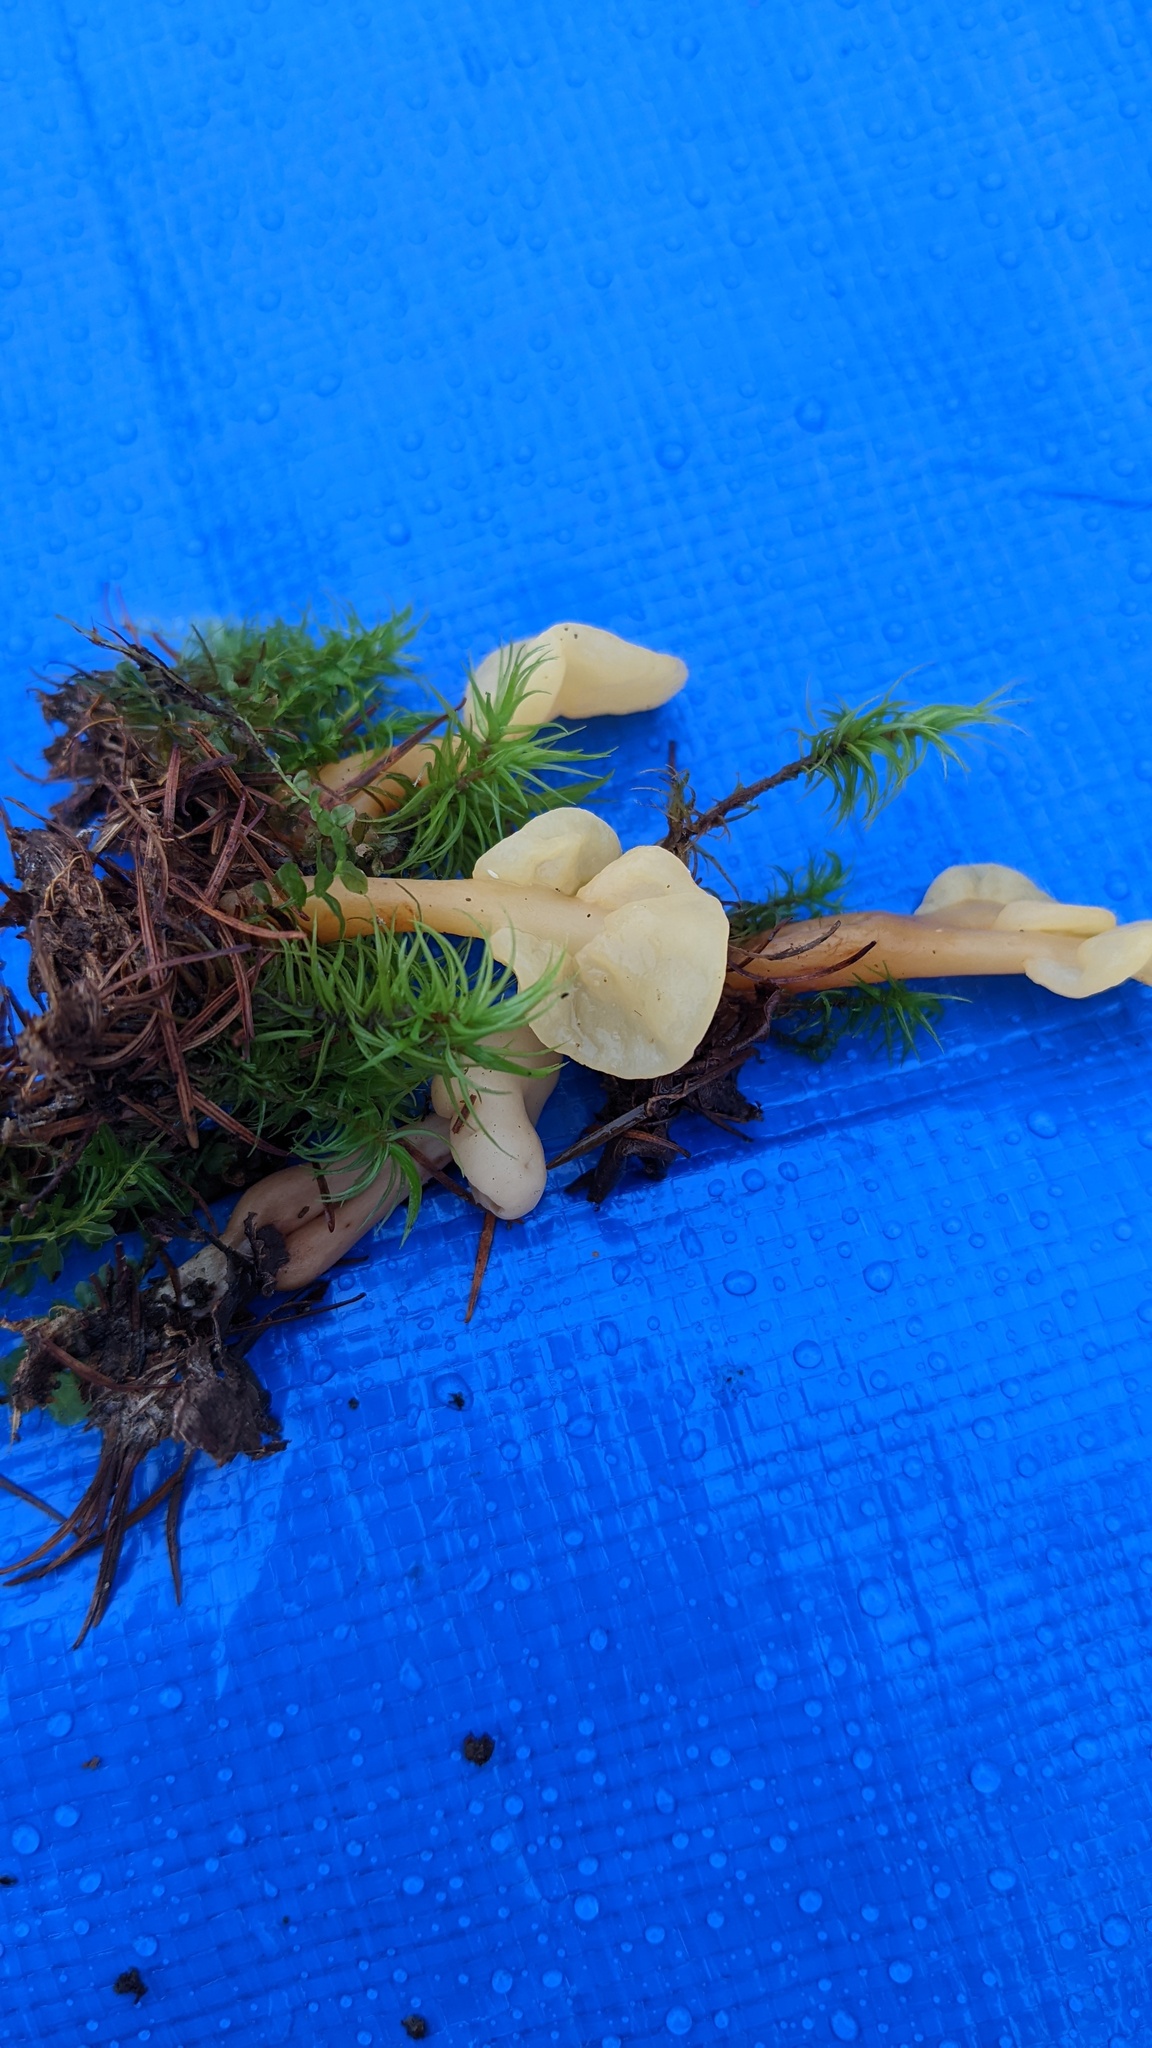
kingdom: Fungi
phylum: Ascomycota
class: Leotiomycetes
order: Rhytismatales
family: Cudoniaceae
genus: Spathularia
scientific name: Spathularia flavida
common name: Yellow fan
